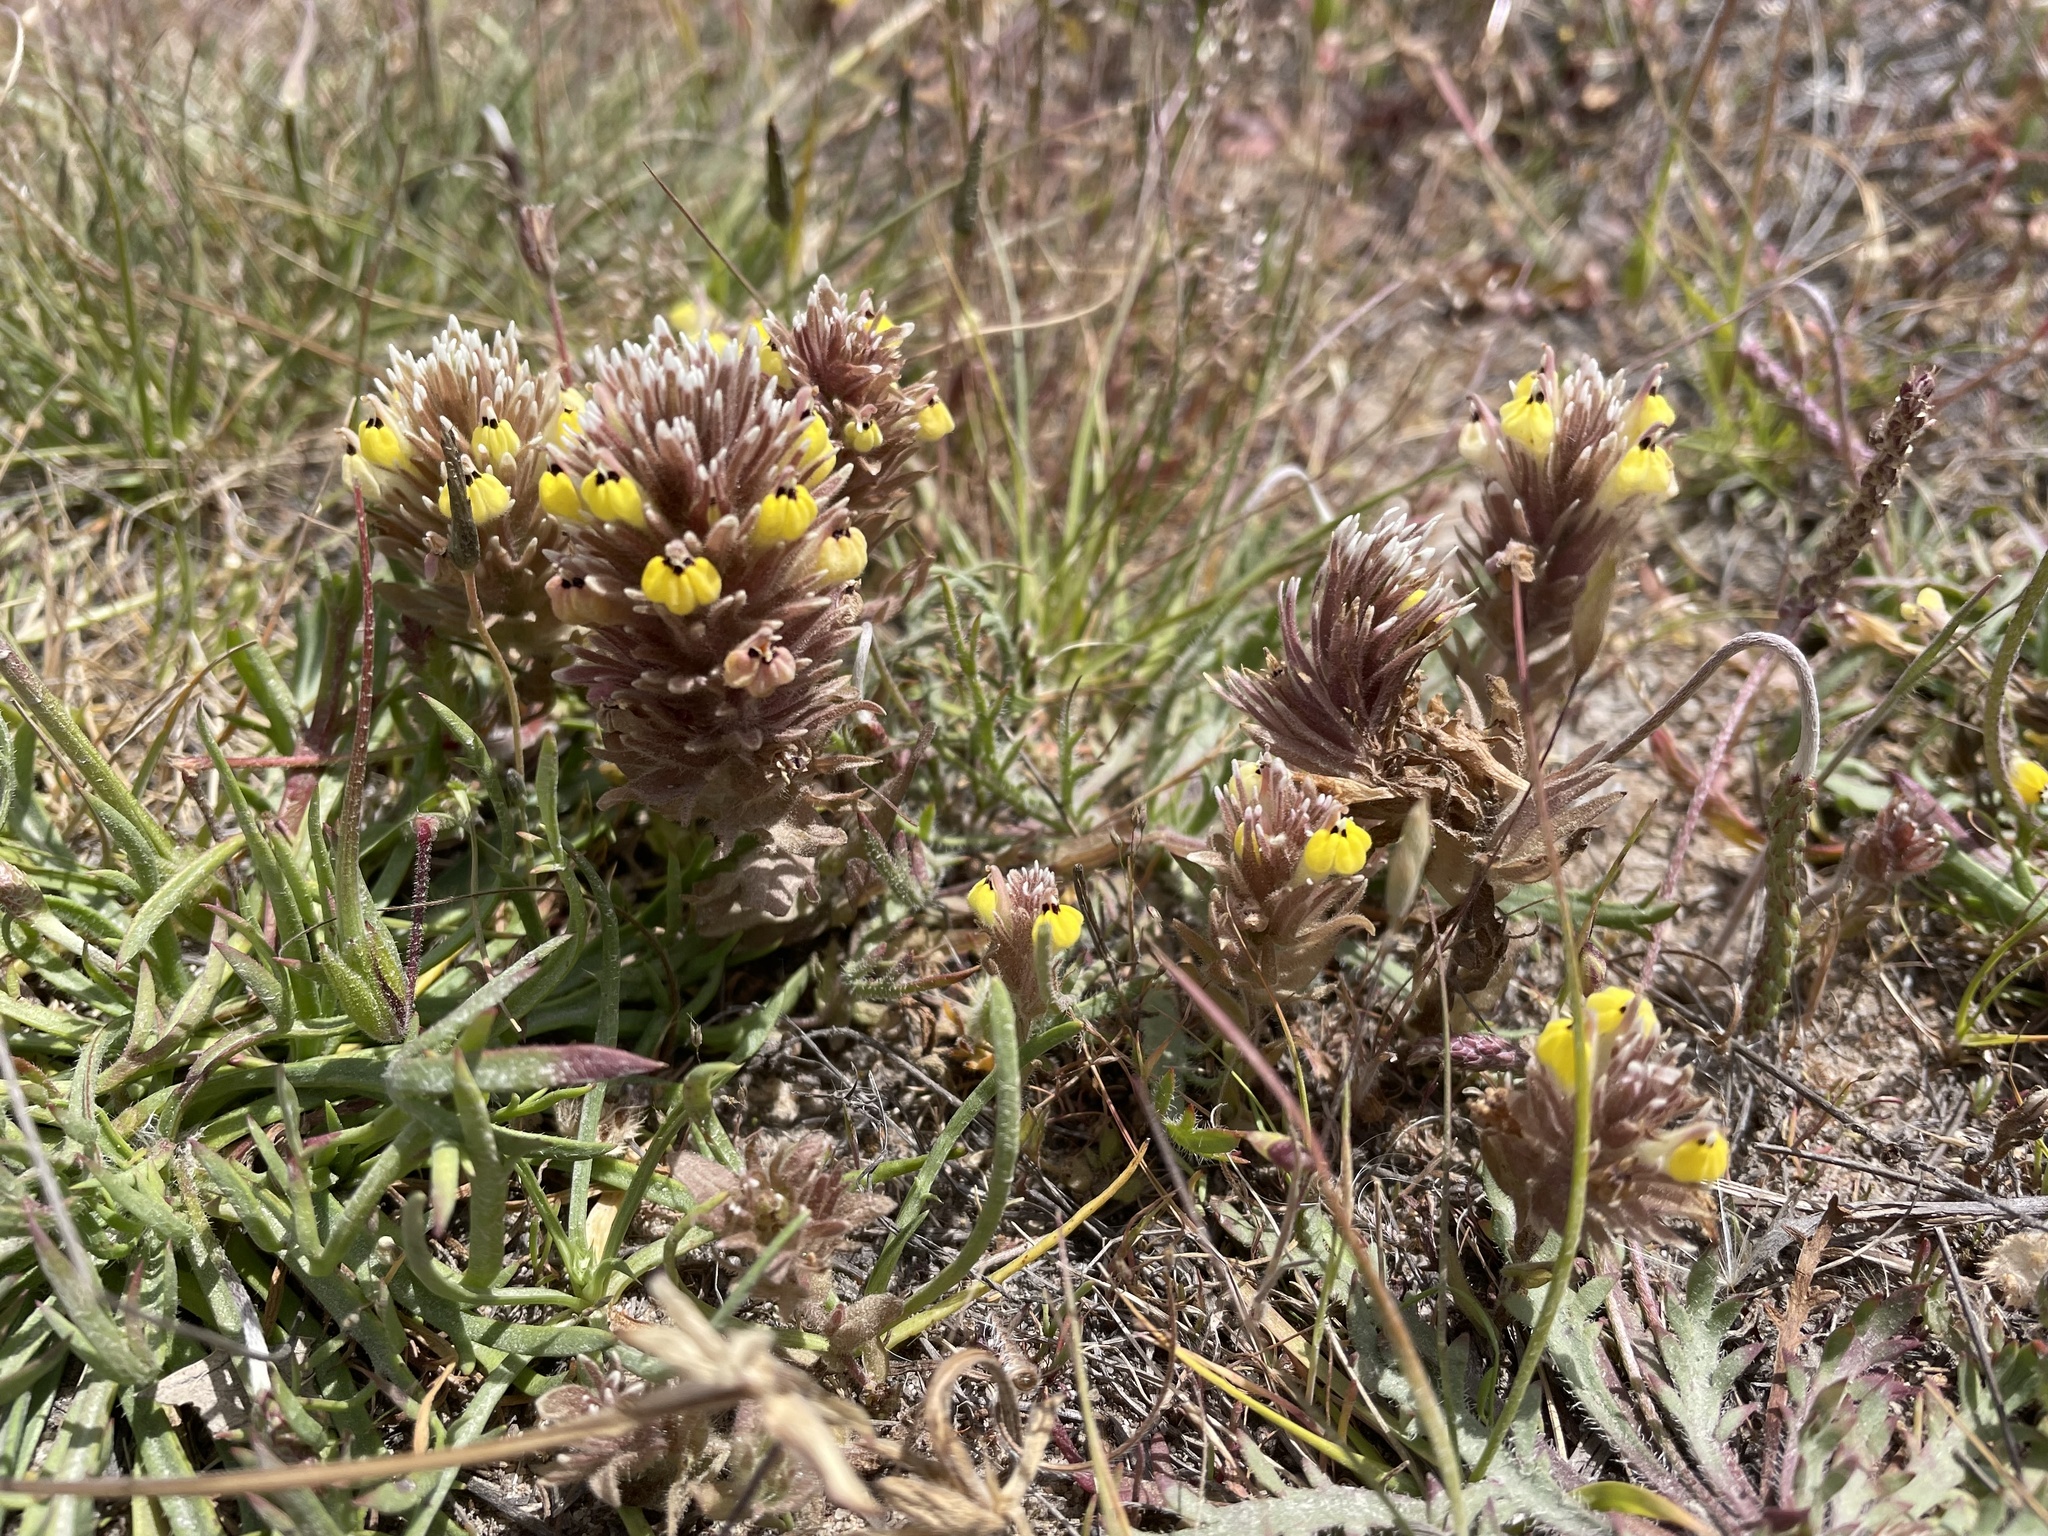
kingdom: Plantae
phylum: Tracheophyta
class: Magnoliopsida
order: Lamiales
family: Orobanchaceae
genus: Castilleja
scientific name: Castilleja ambigua
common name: Johnny-nip
